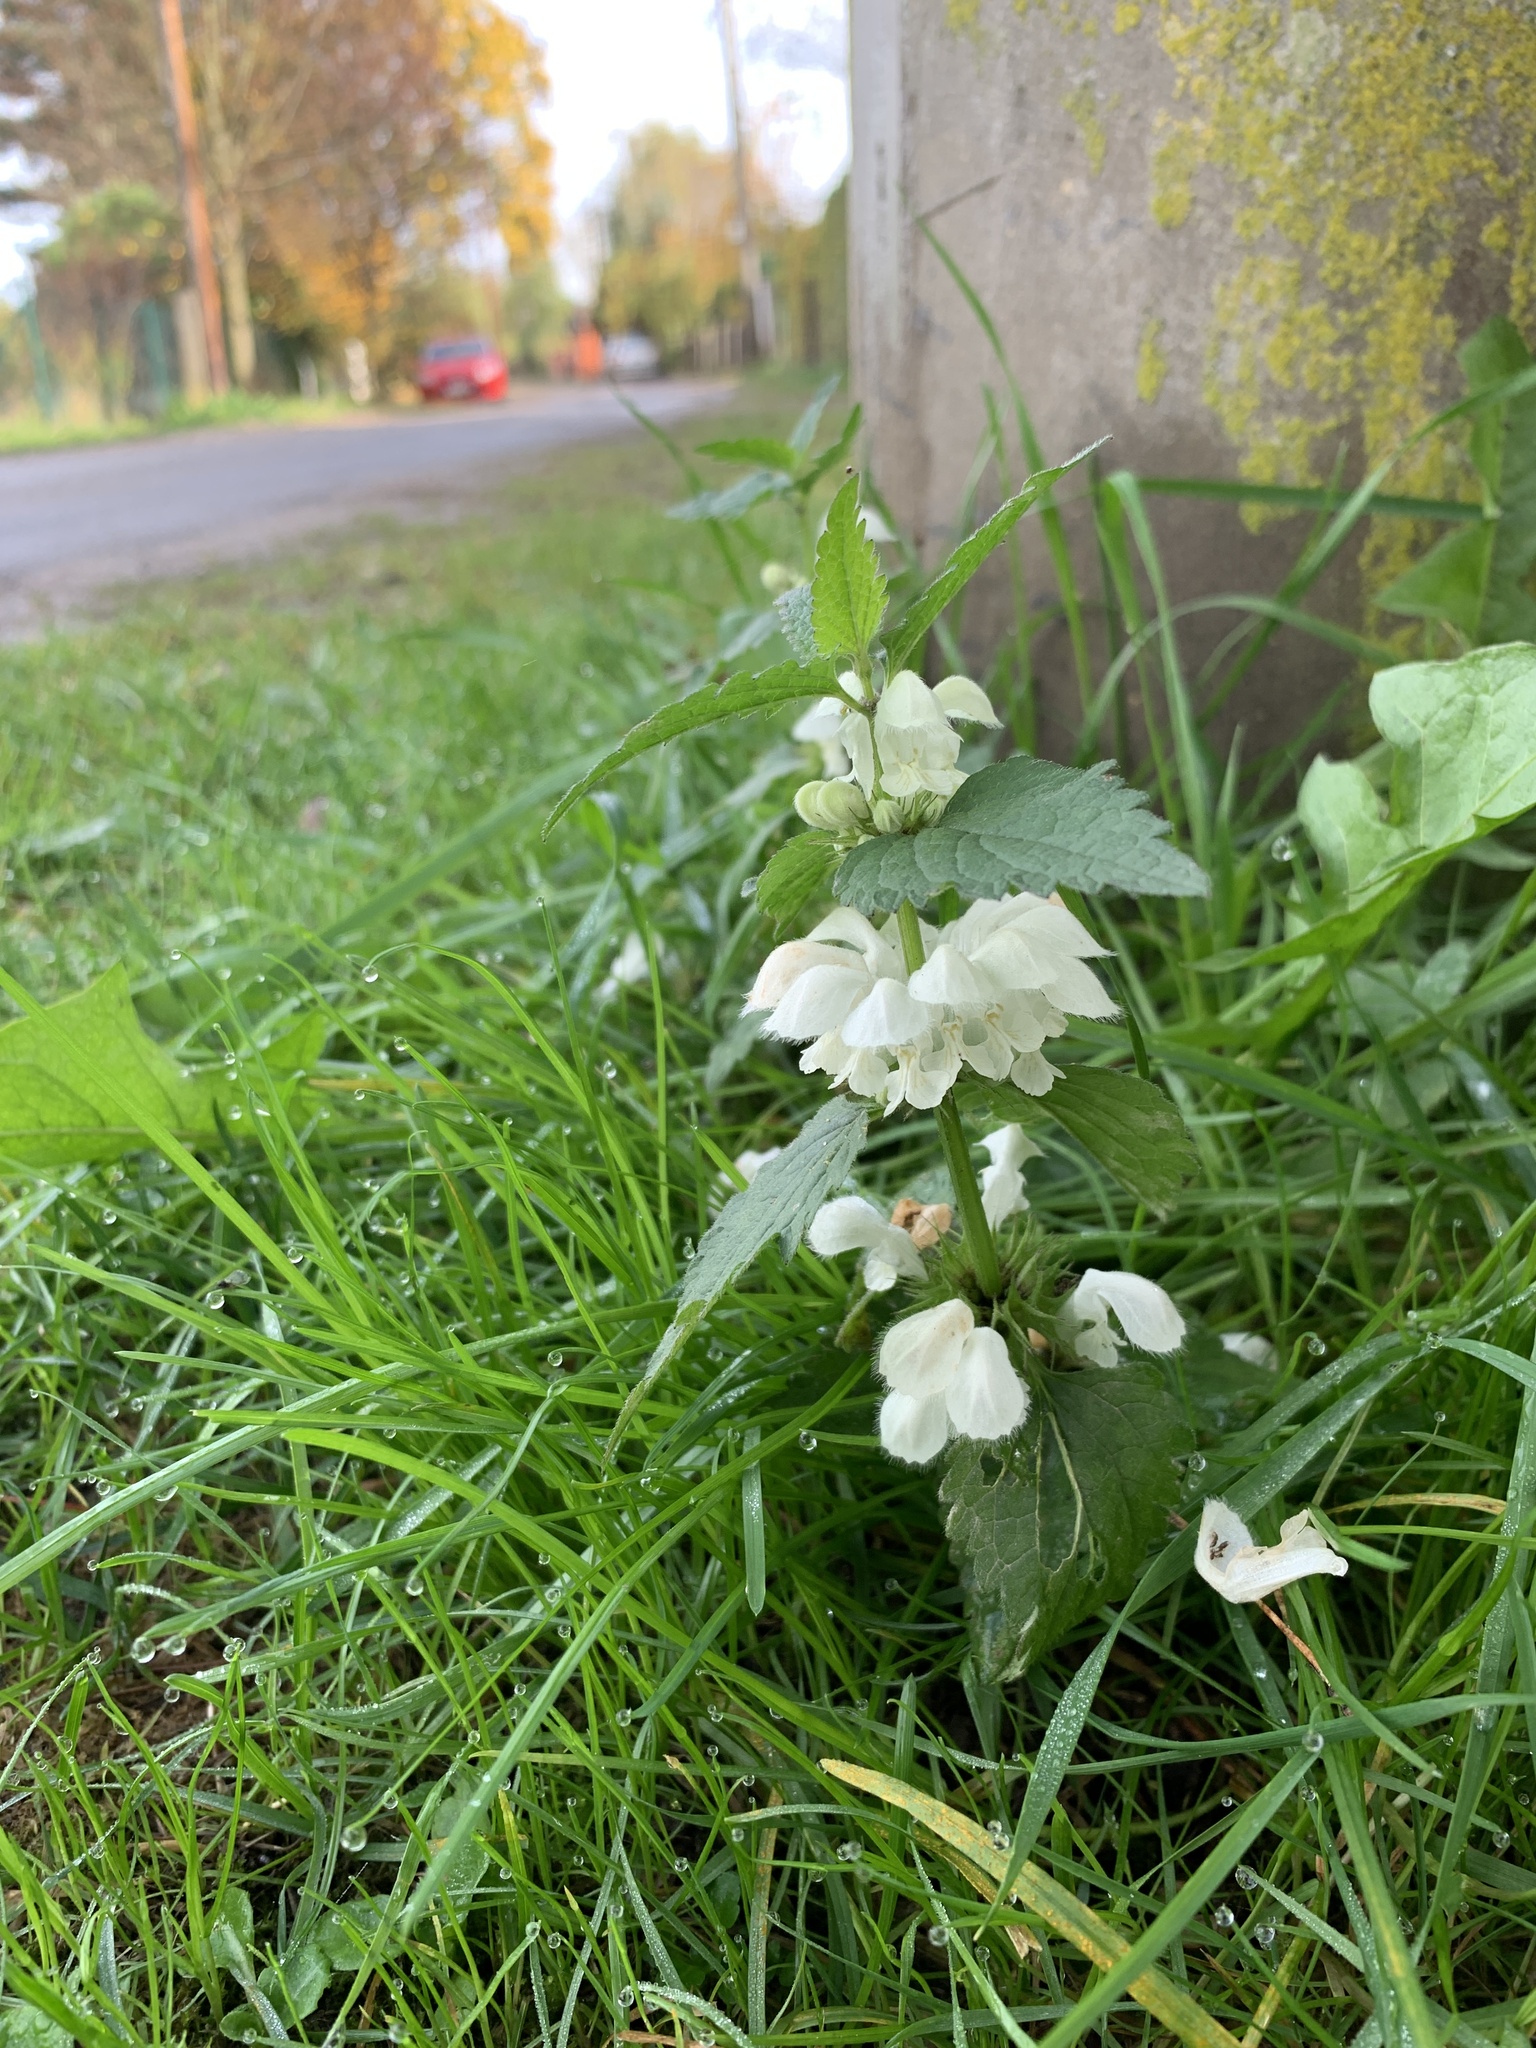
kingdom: Plantae
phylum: Tracheophyta
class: Magnoliopsida
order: Lamiales
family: Lamiaceae
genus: Lamium
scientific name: Lamium album
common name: White dead-nettle
